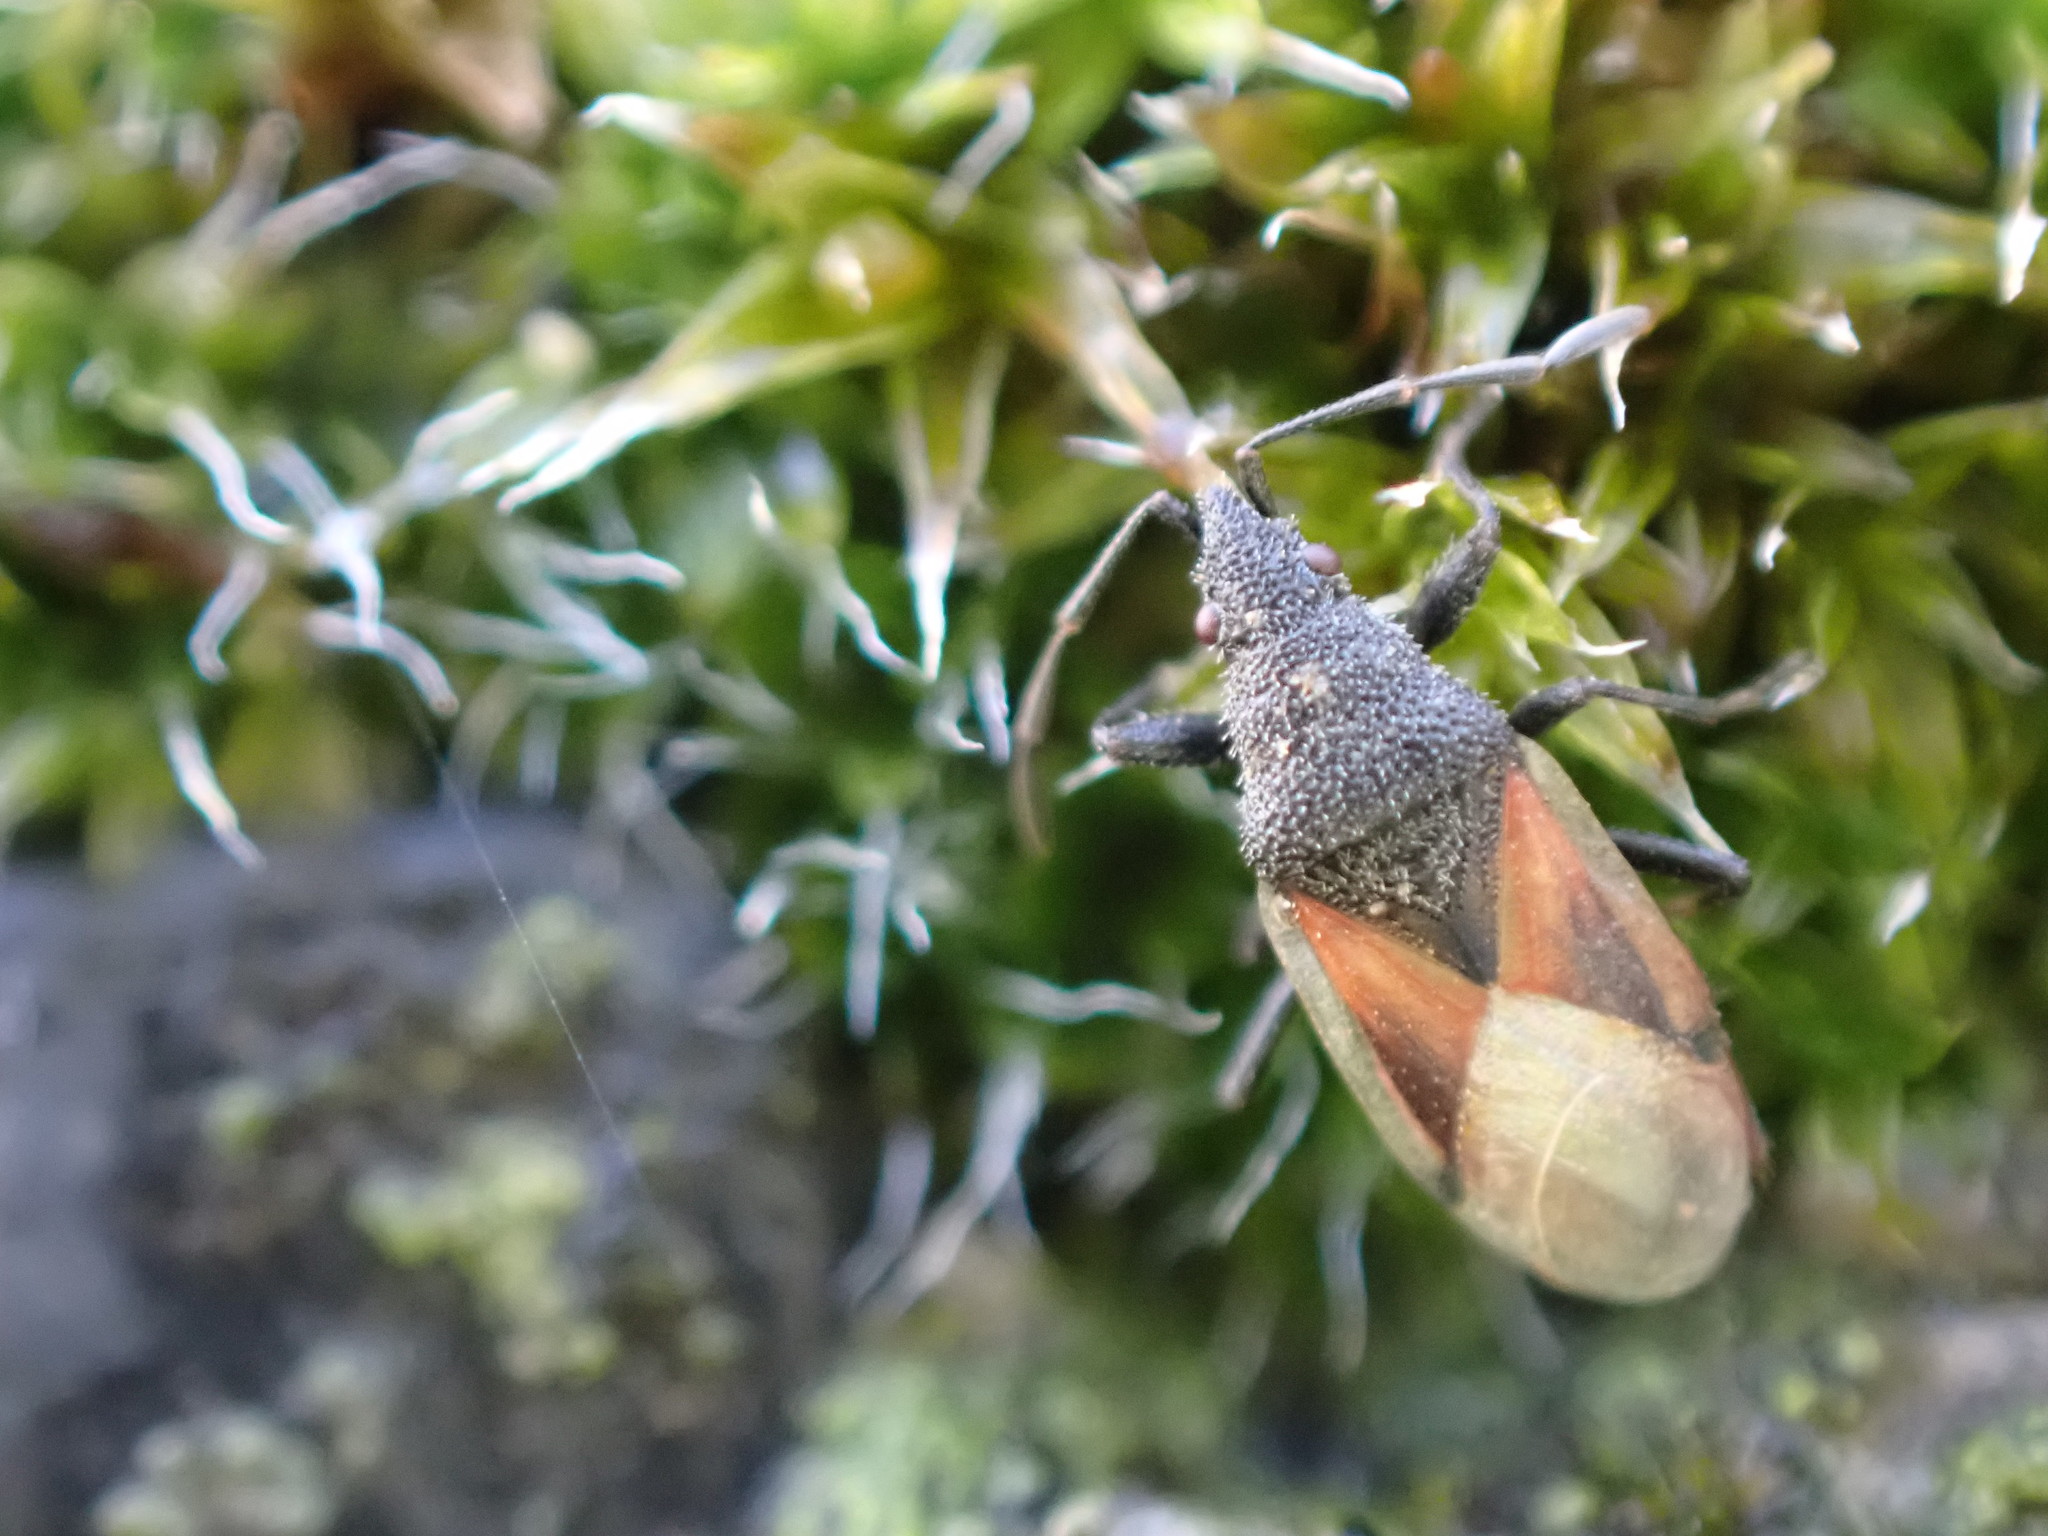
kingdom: Animalia
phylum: Arthropoda
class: Insecta
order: Hemiptera
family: Oxycarenidae
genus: Oxycarenus
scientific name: Oxycarenus lavaterae
